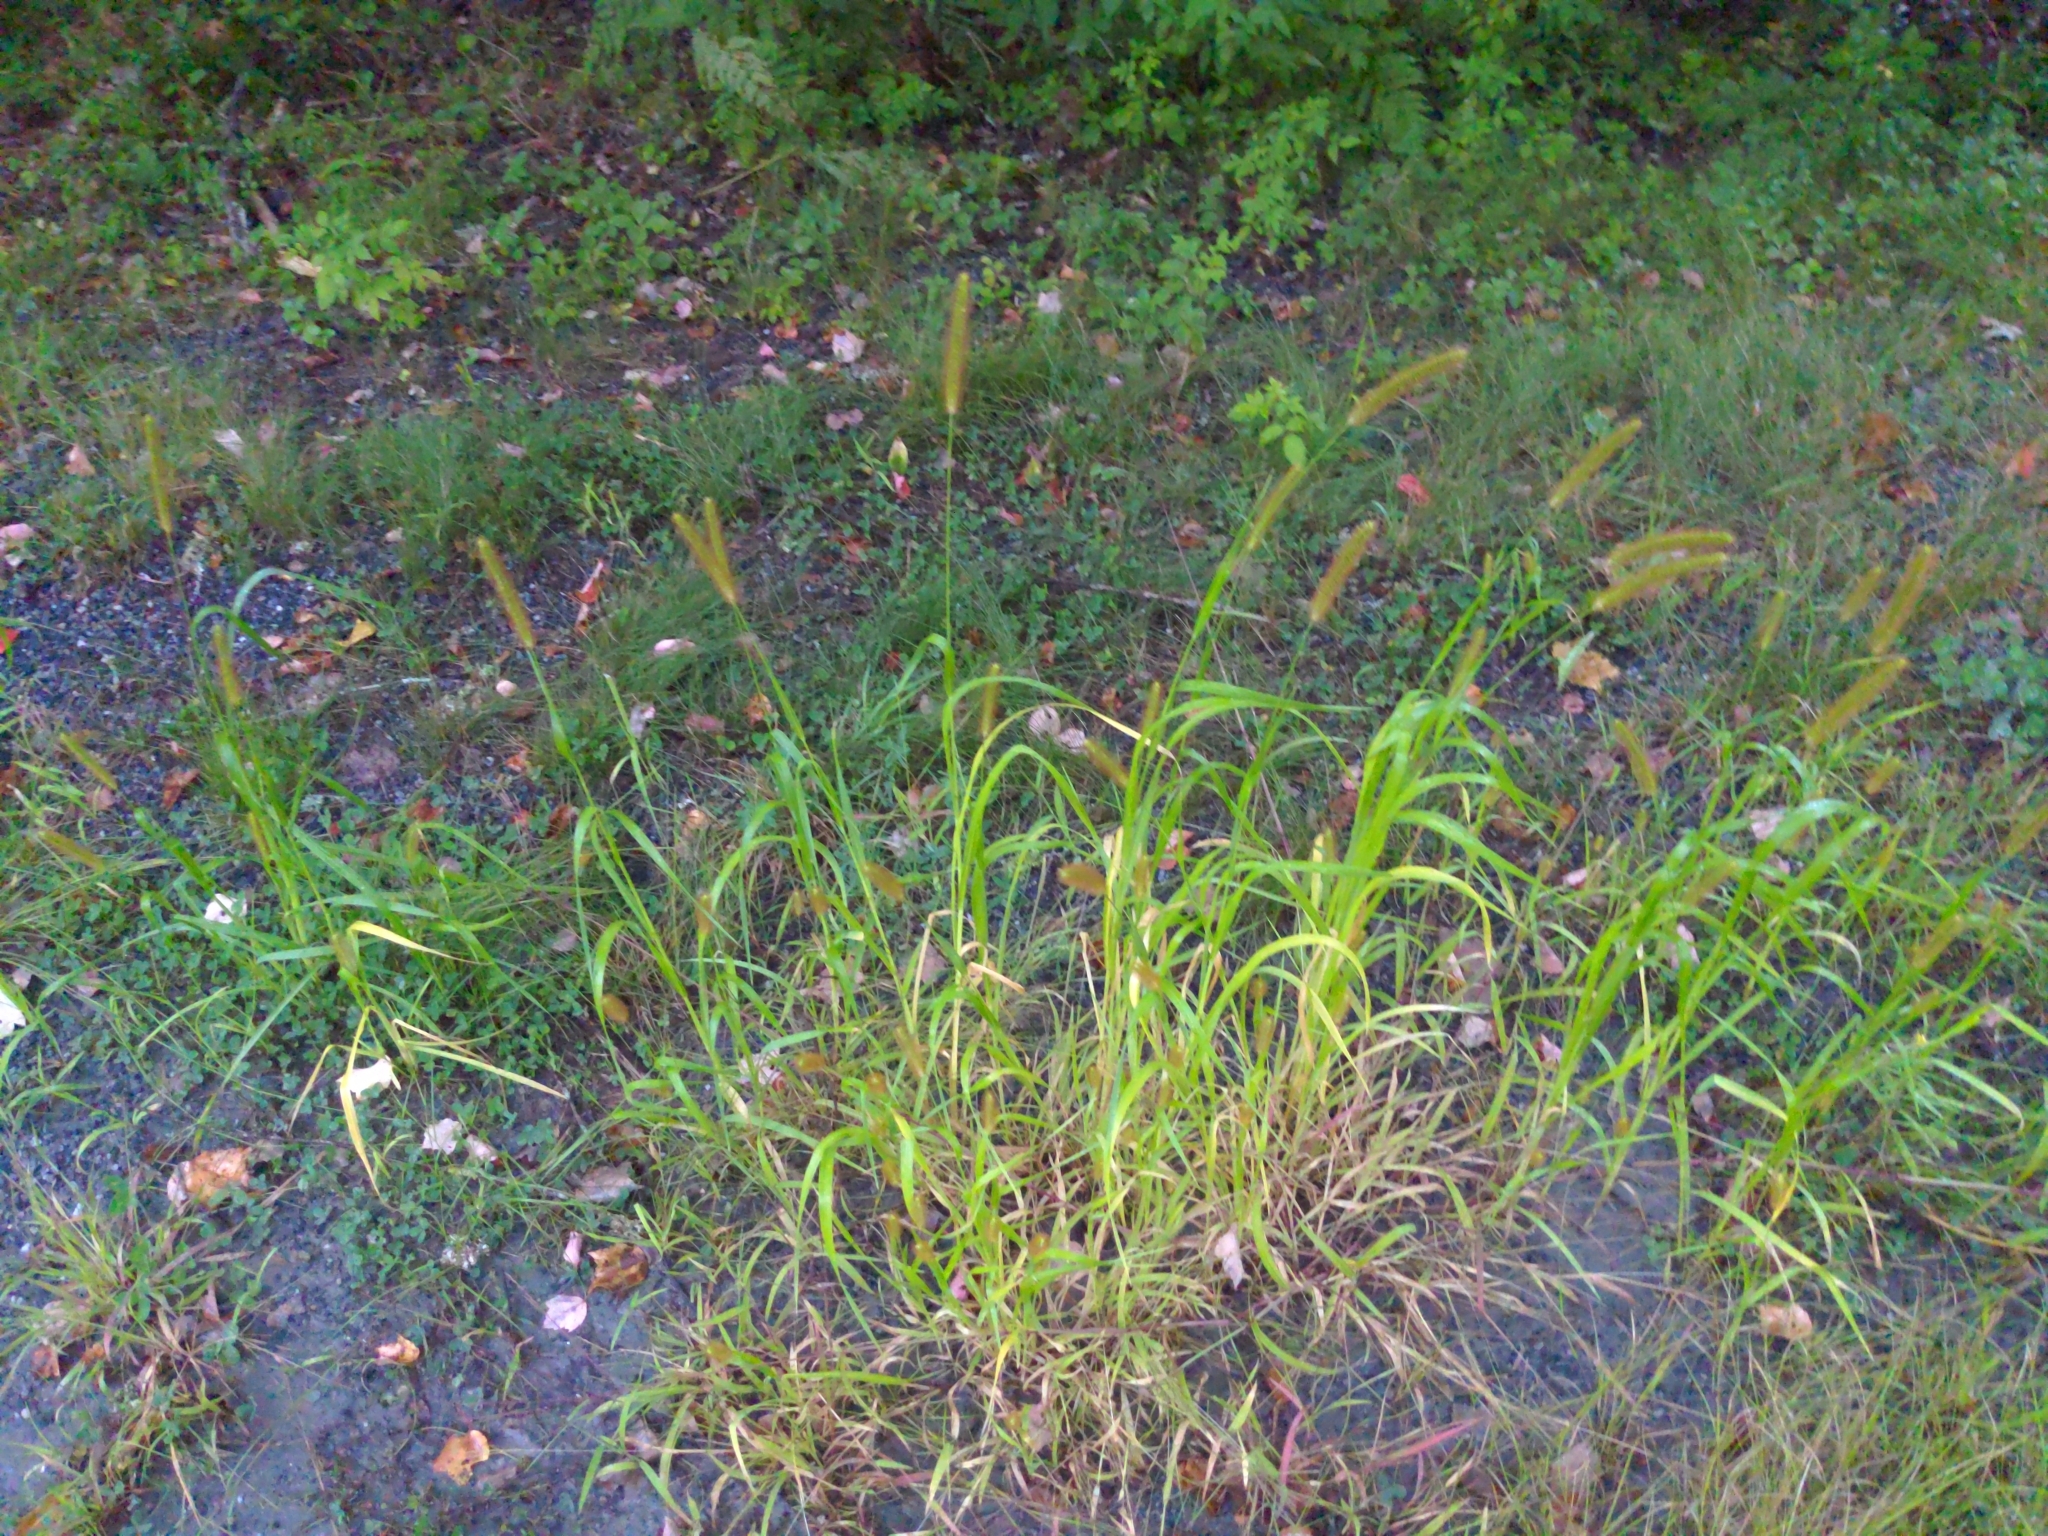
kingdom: Plantae
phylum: Tracheophyta
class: Liliopsida
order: Poales
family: Poaceae
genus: Setaria
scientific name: Setaria pumila
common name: Yellow bristle-grass
